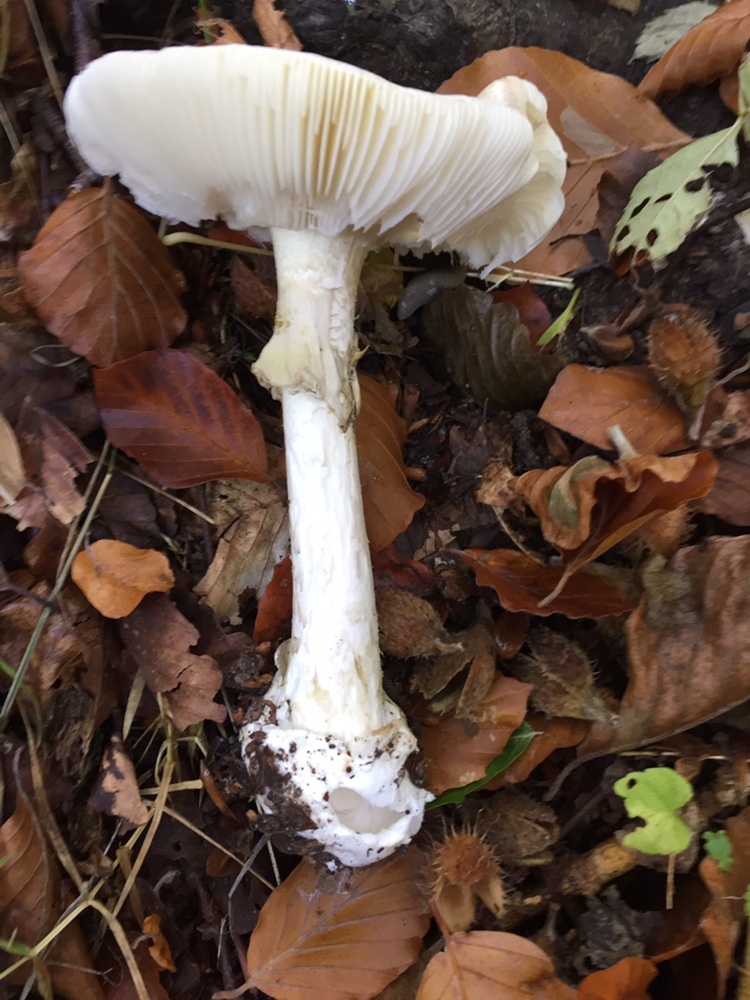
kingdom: Fungi
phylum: Basidiomycota
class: Agaricomycetes
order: Agaricales
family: Amanitaceae
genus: Amanita
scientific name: Amanita phalloides
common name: Death cap
